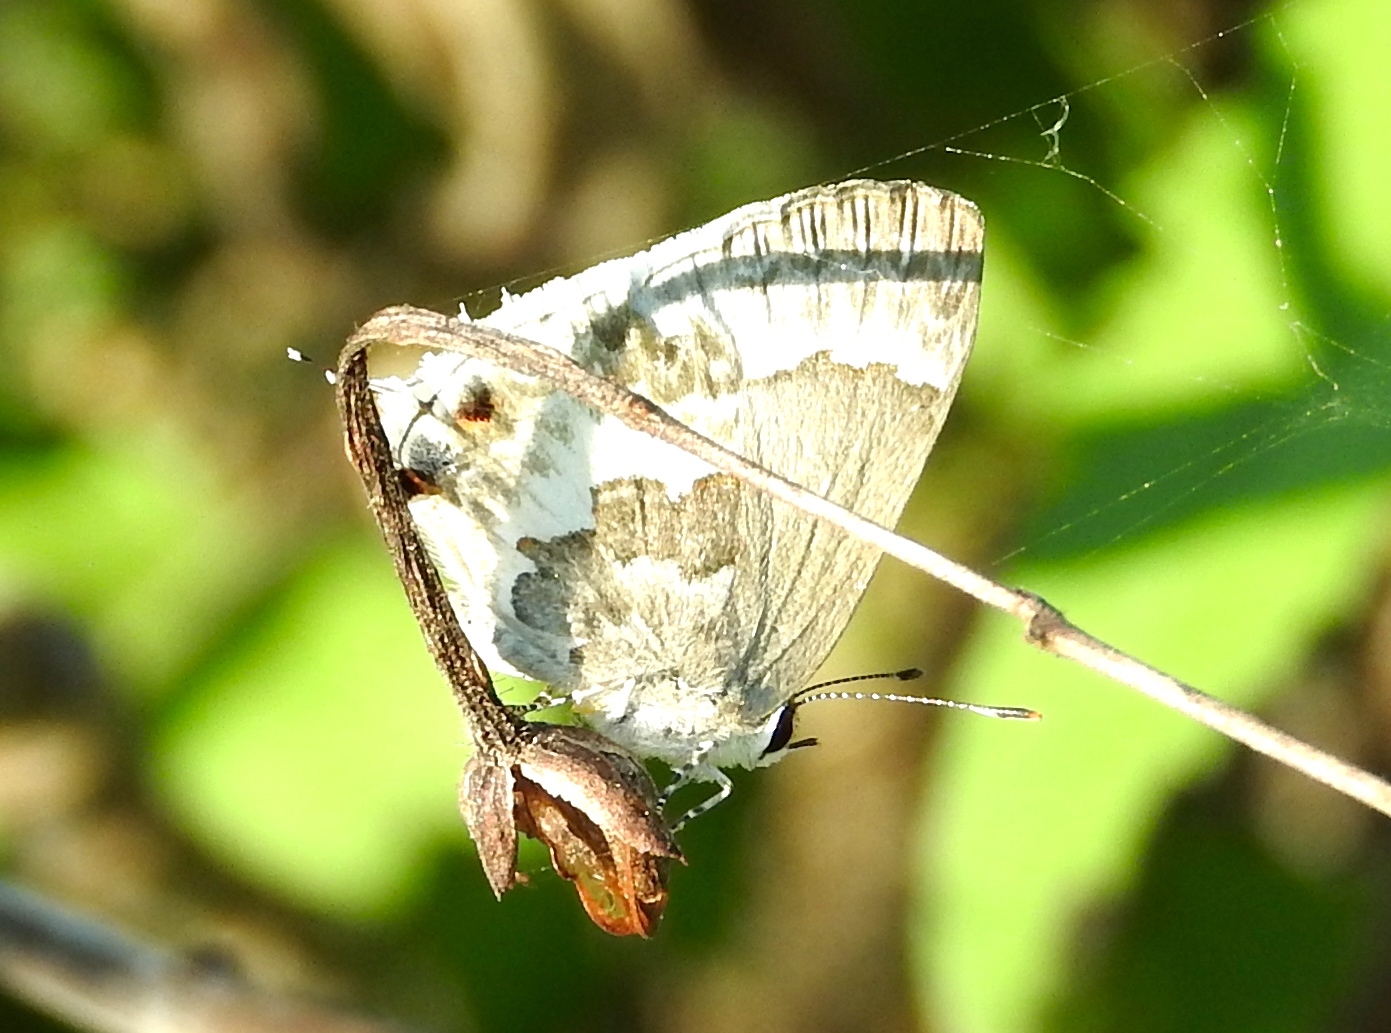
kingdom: Animalia
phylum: Arthropoda
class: Insecta
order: Lepidoptera
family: Lycaenidae
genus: Strymon
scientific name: Strymon albata
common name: White scrub-hairstreak
